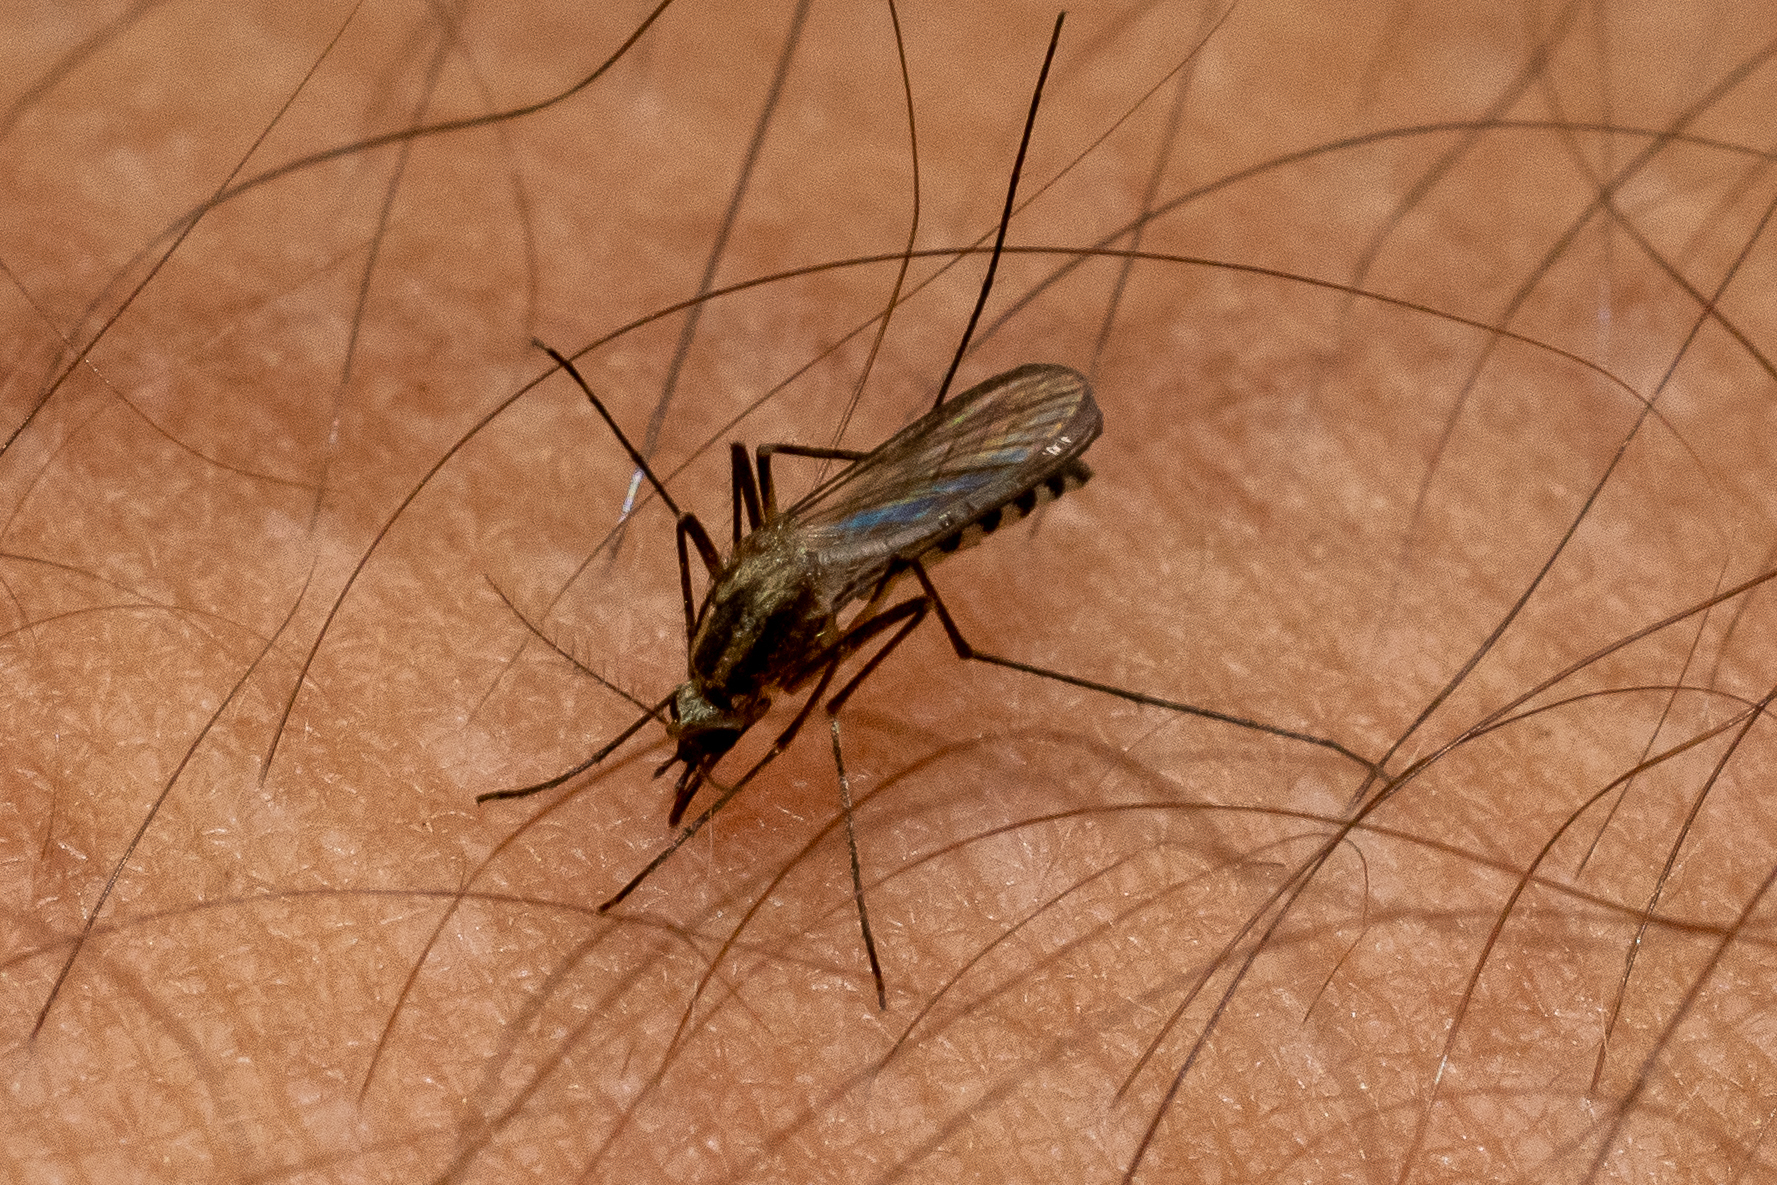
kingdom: Animalia
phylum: Arthropoda
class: Insecta
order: Diptera
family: Culicidae
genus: Aedes
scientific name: Aedes trivittatus
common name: Plains floodwater mosquito
